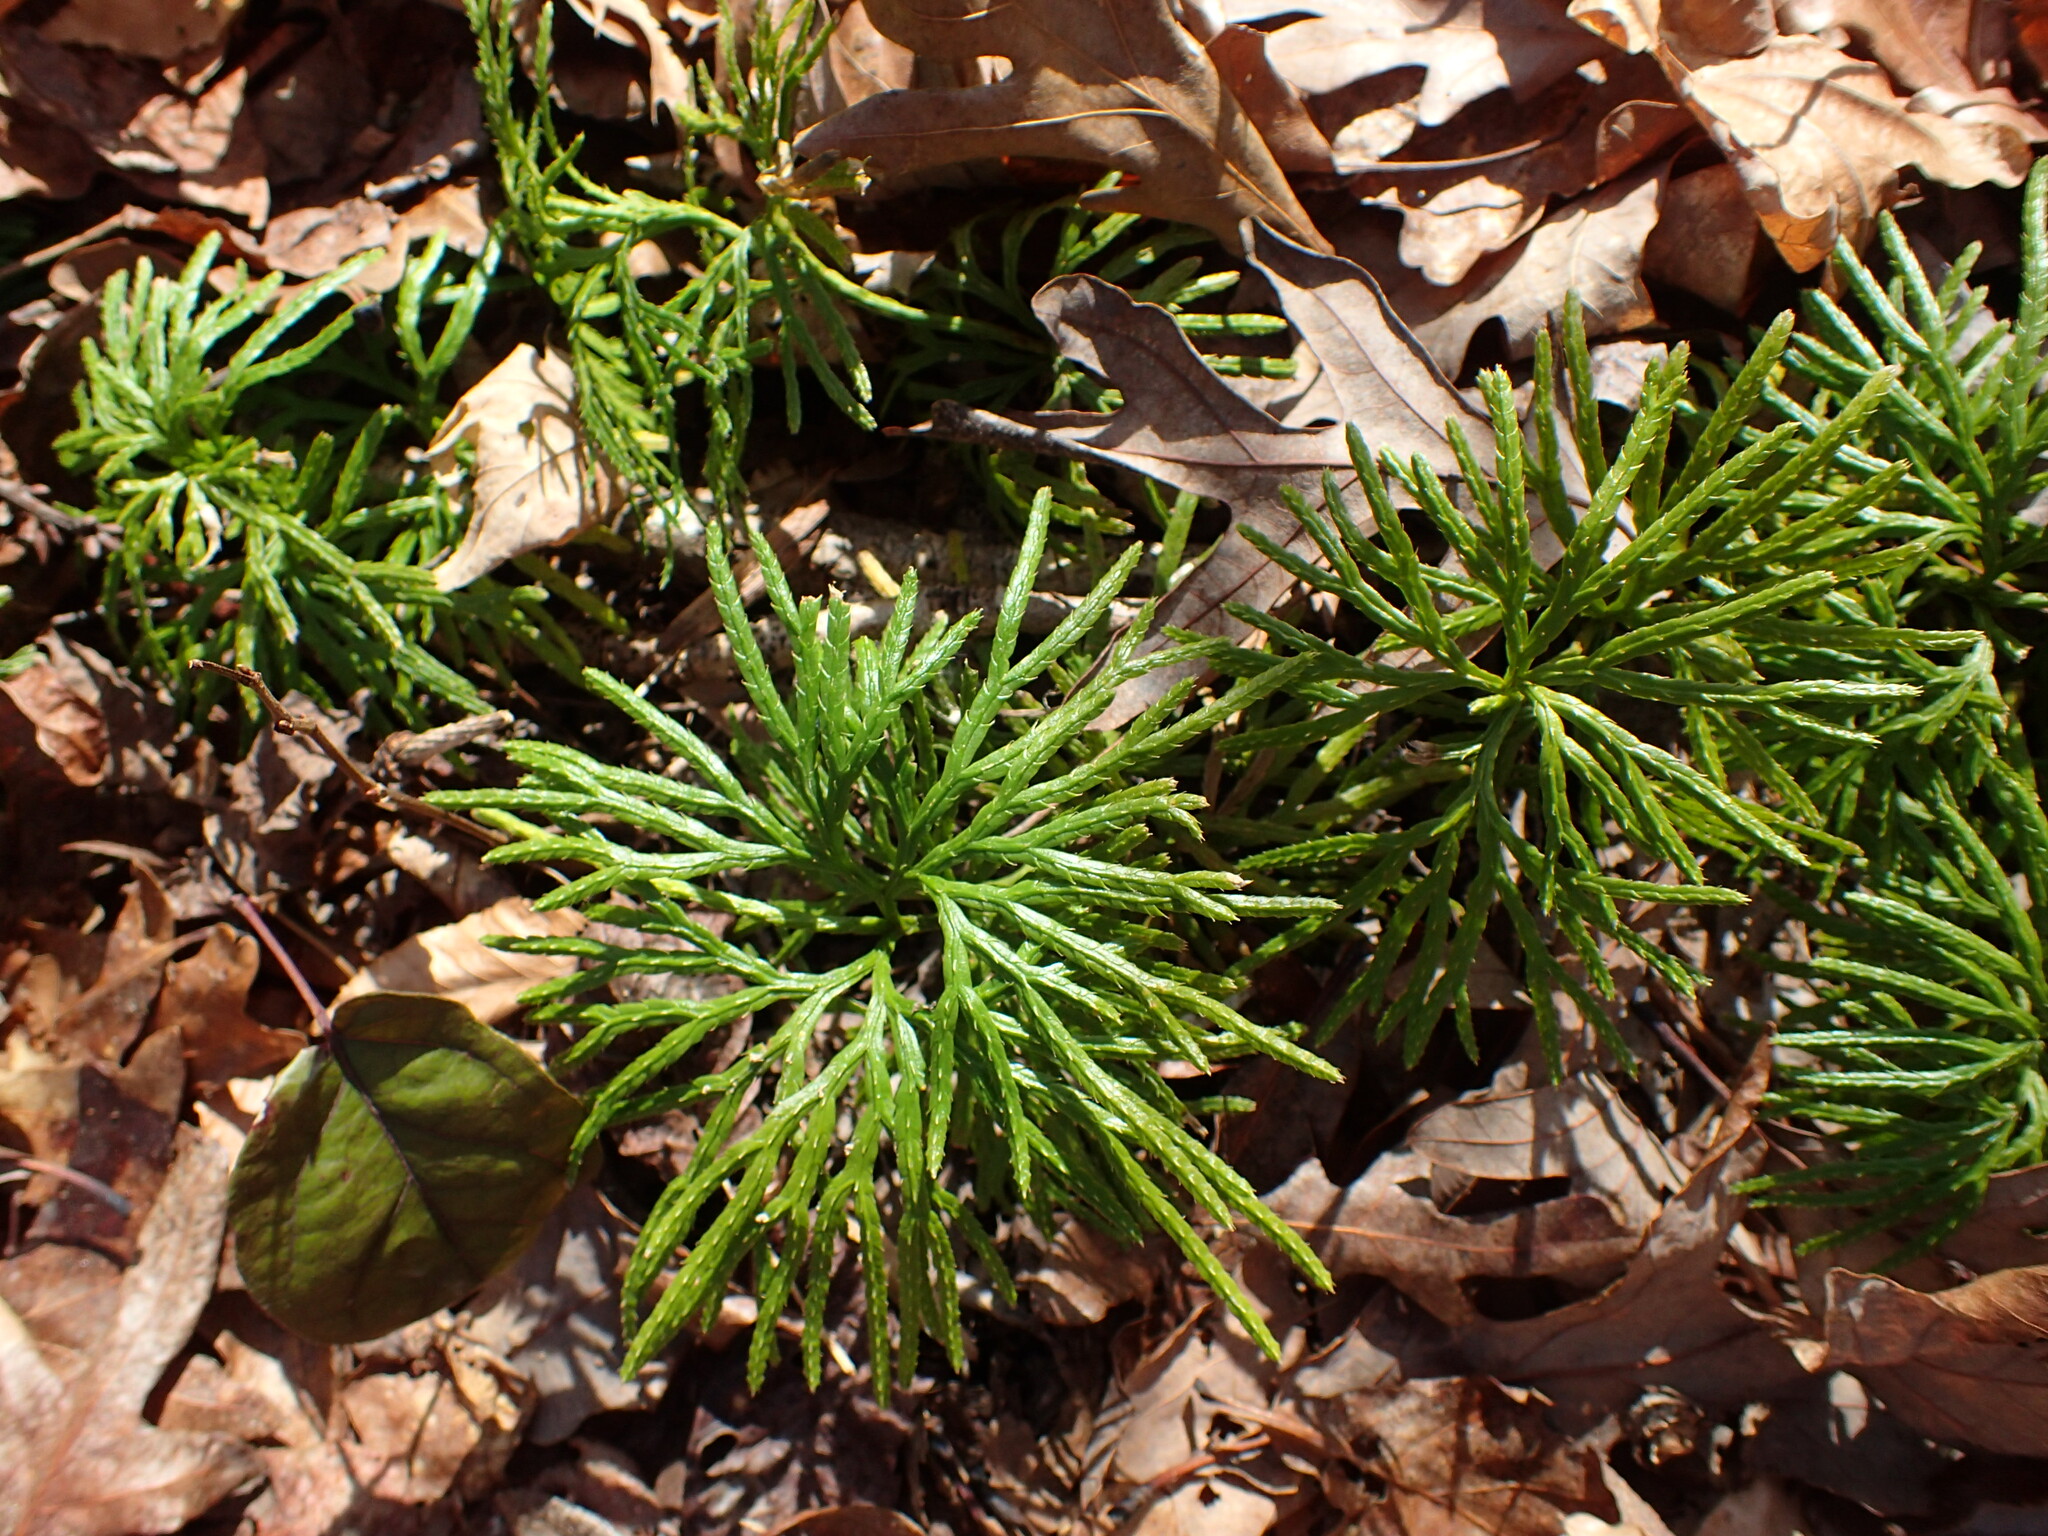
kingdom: Plantae
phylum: Tracheophyta
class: Lycopodiopsida
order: Lycopodiales
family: Lycopodiaceae
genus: Diphasiastrum
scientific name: Diphasiastrum digitatum
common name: Southern running-pine
